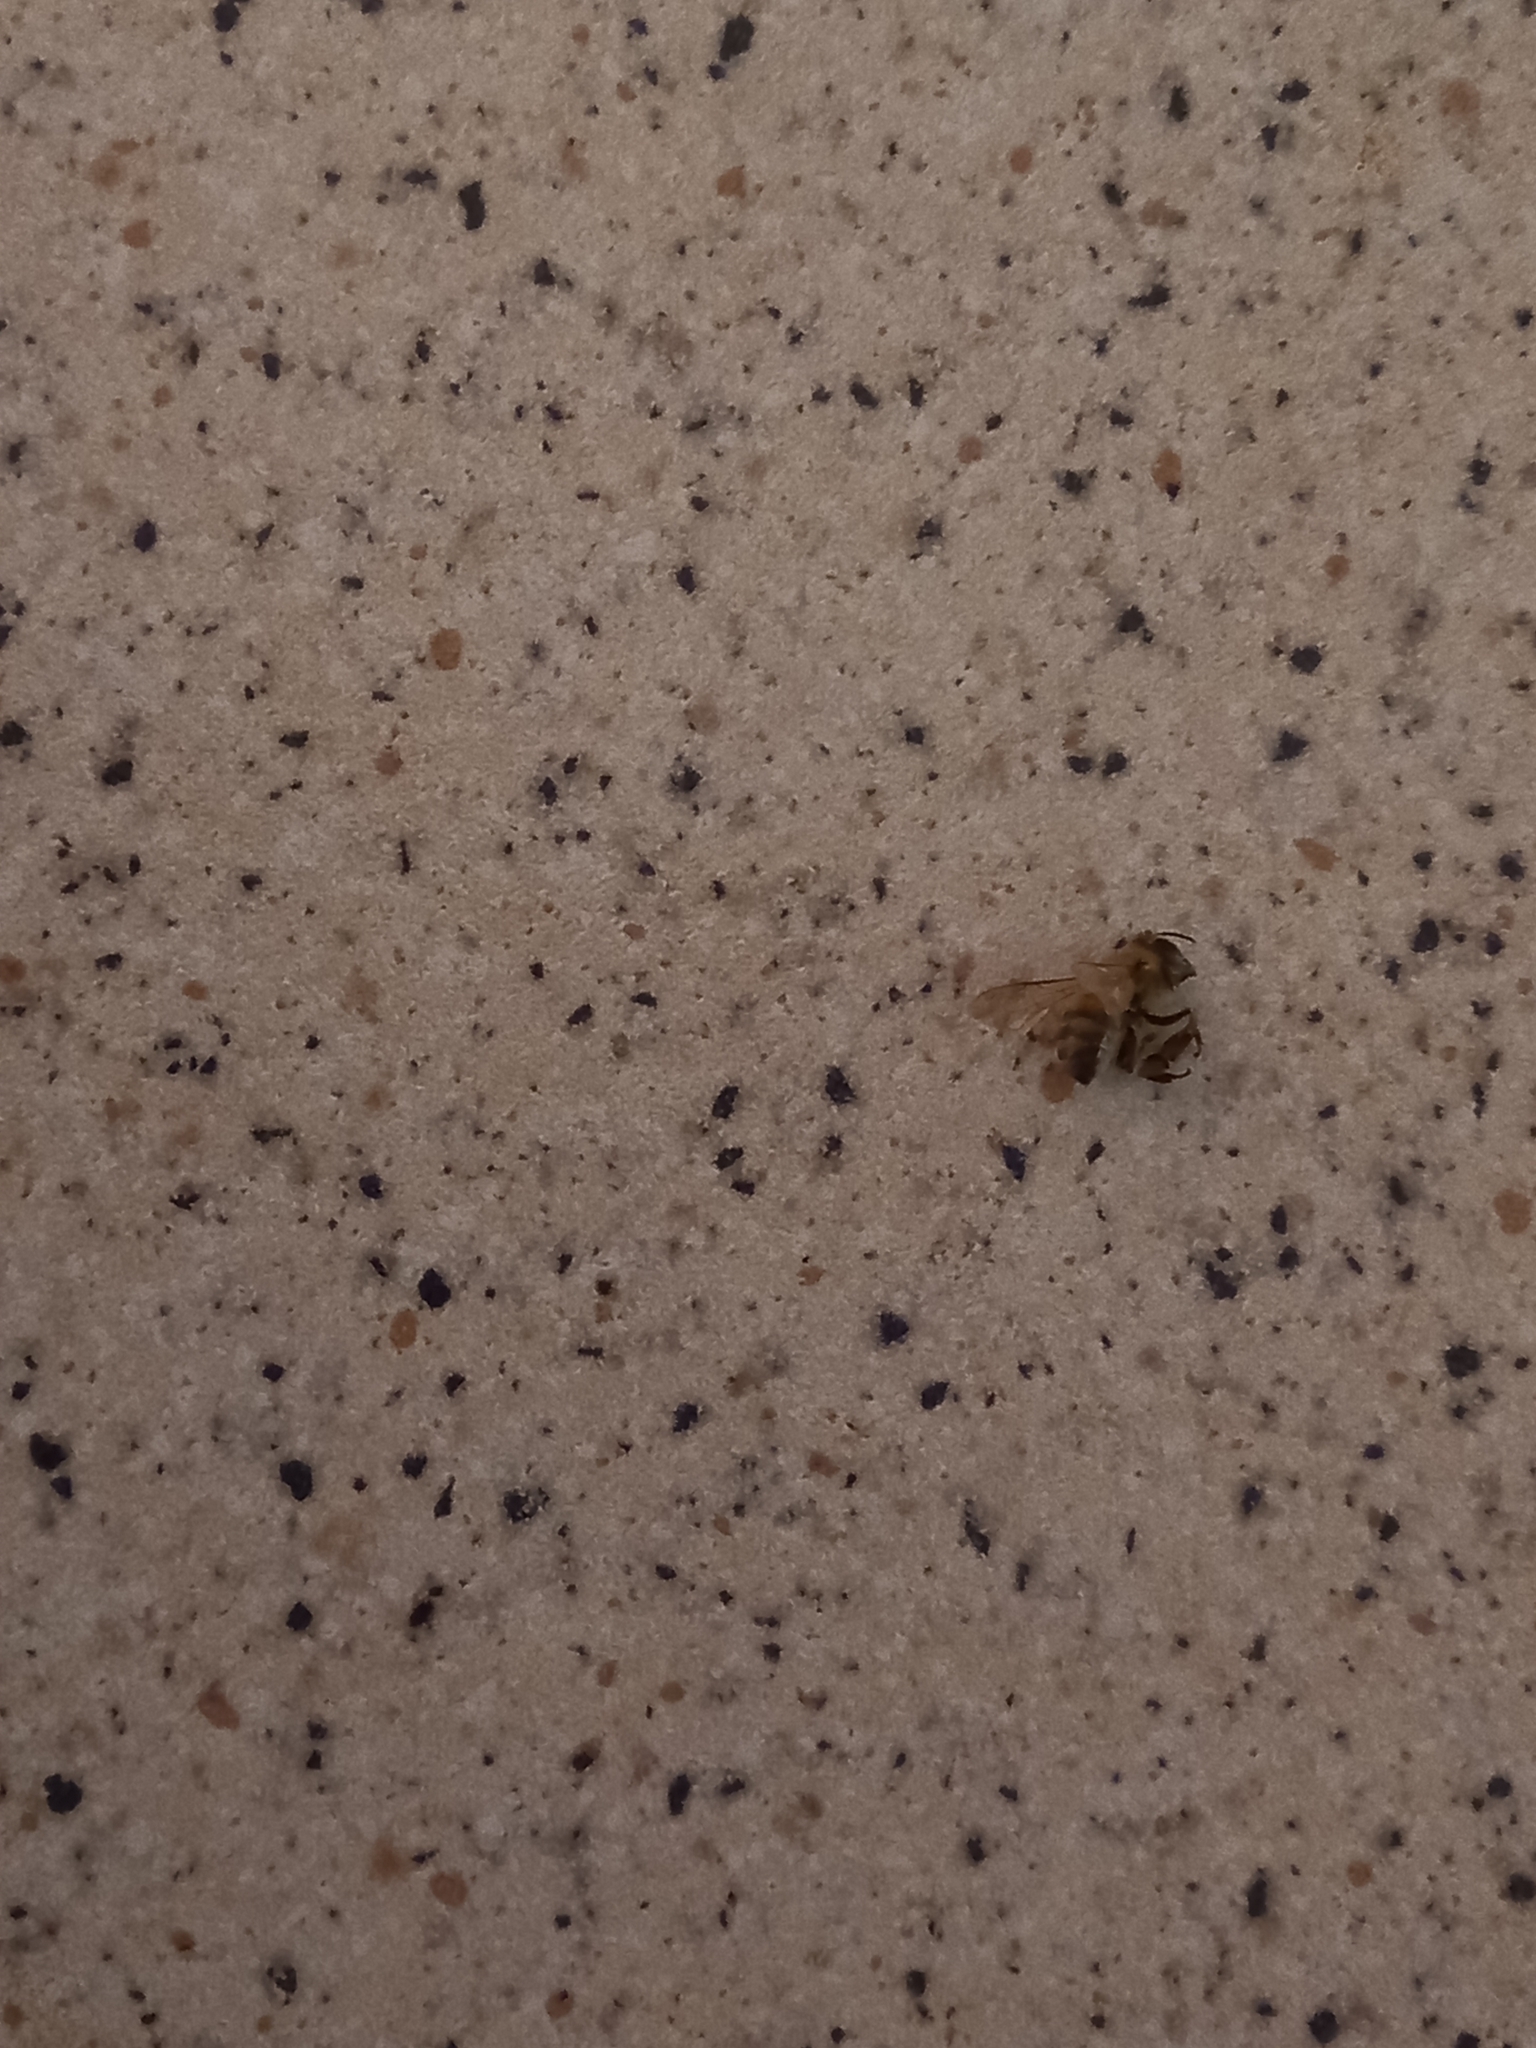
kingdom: Animalia
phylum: Arthropoda
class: Insecta
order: Hymenoptera
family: Apidae
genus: Apis
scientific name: Apis mellifera
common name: Honey bee
